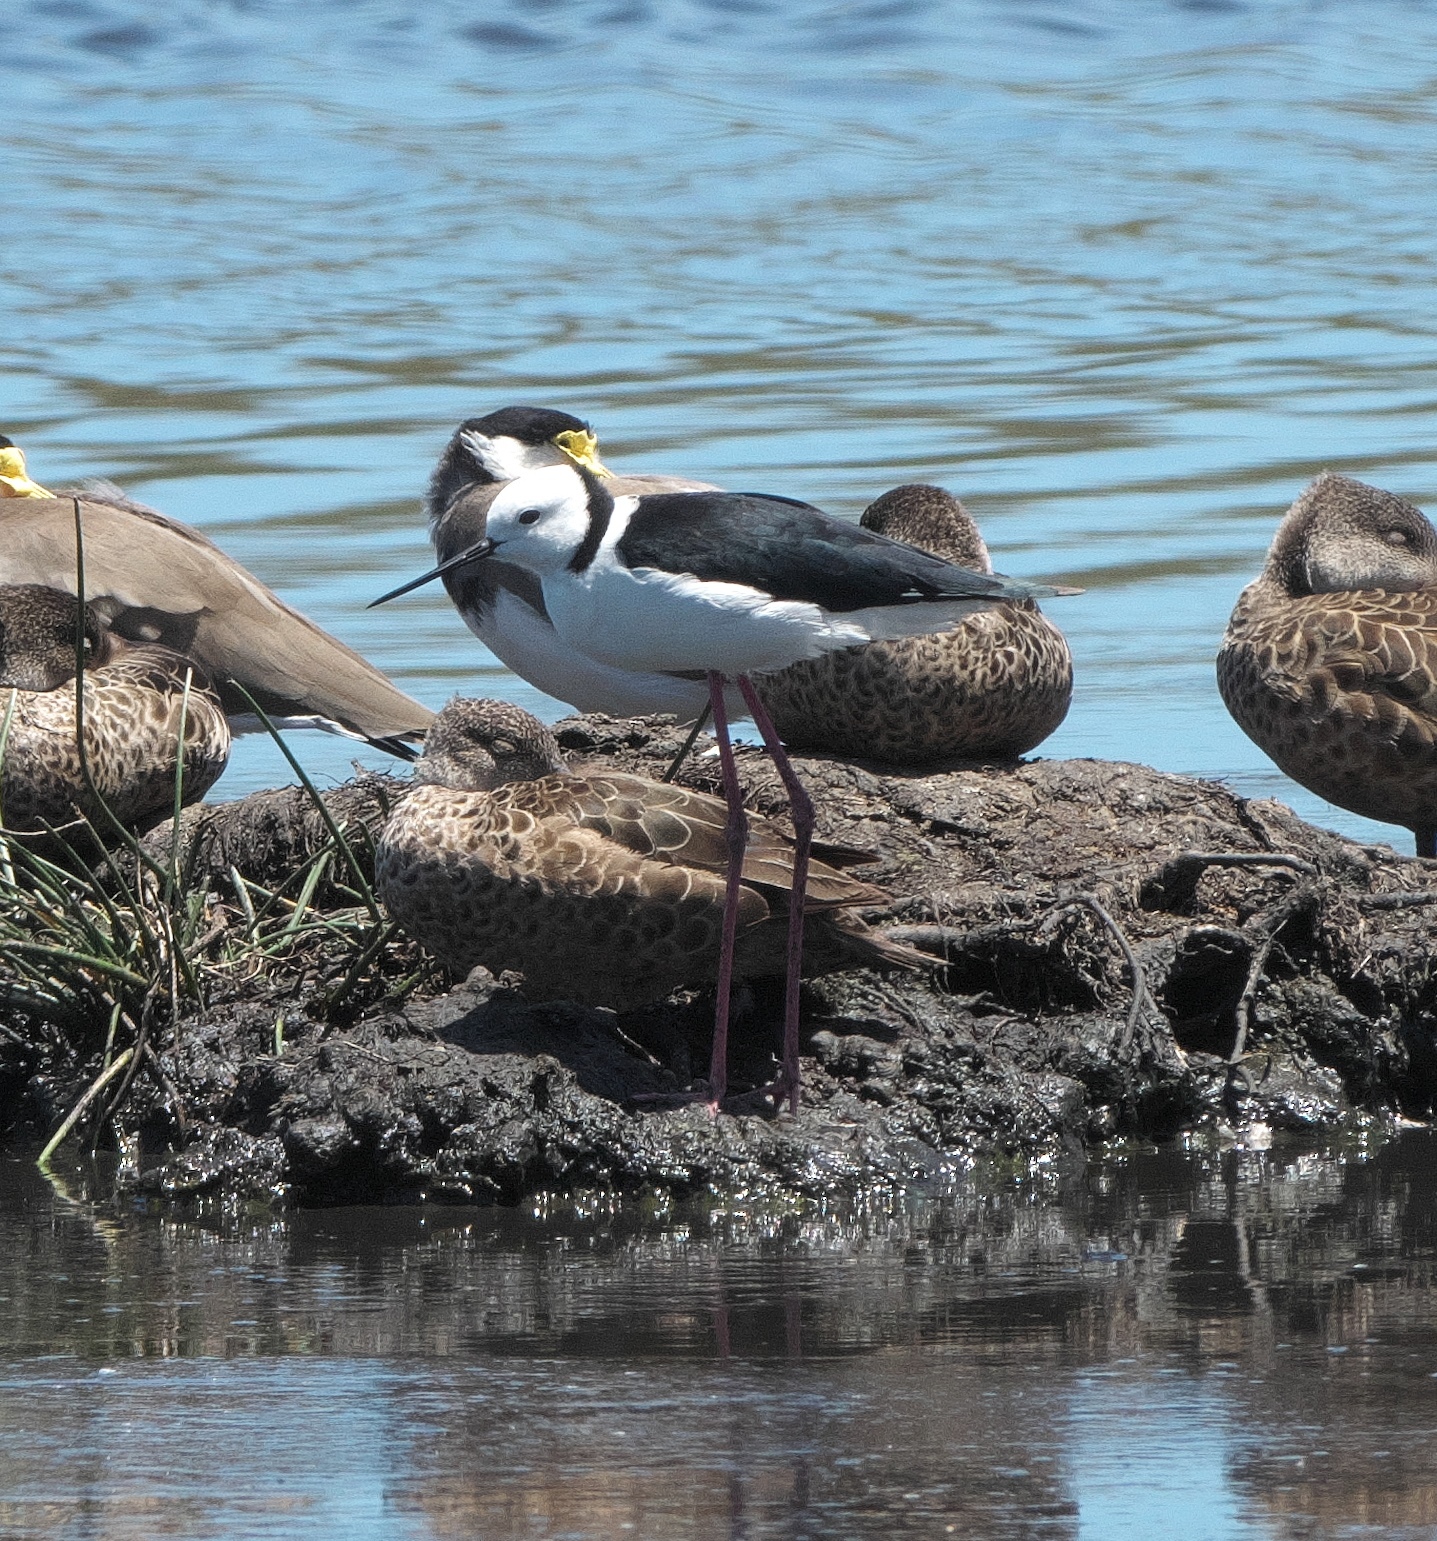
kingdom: Animalia
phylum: Chordata
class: Aves
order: Charadriiformes
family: Recurvirostridae
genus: Himantopus
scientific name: Himantopus leucocephalus
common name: White-headed stilt
